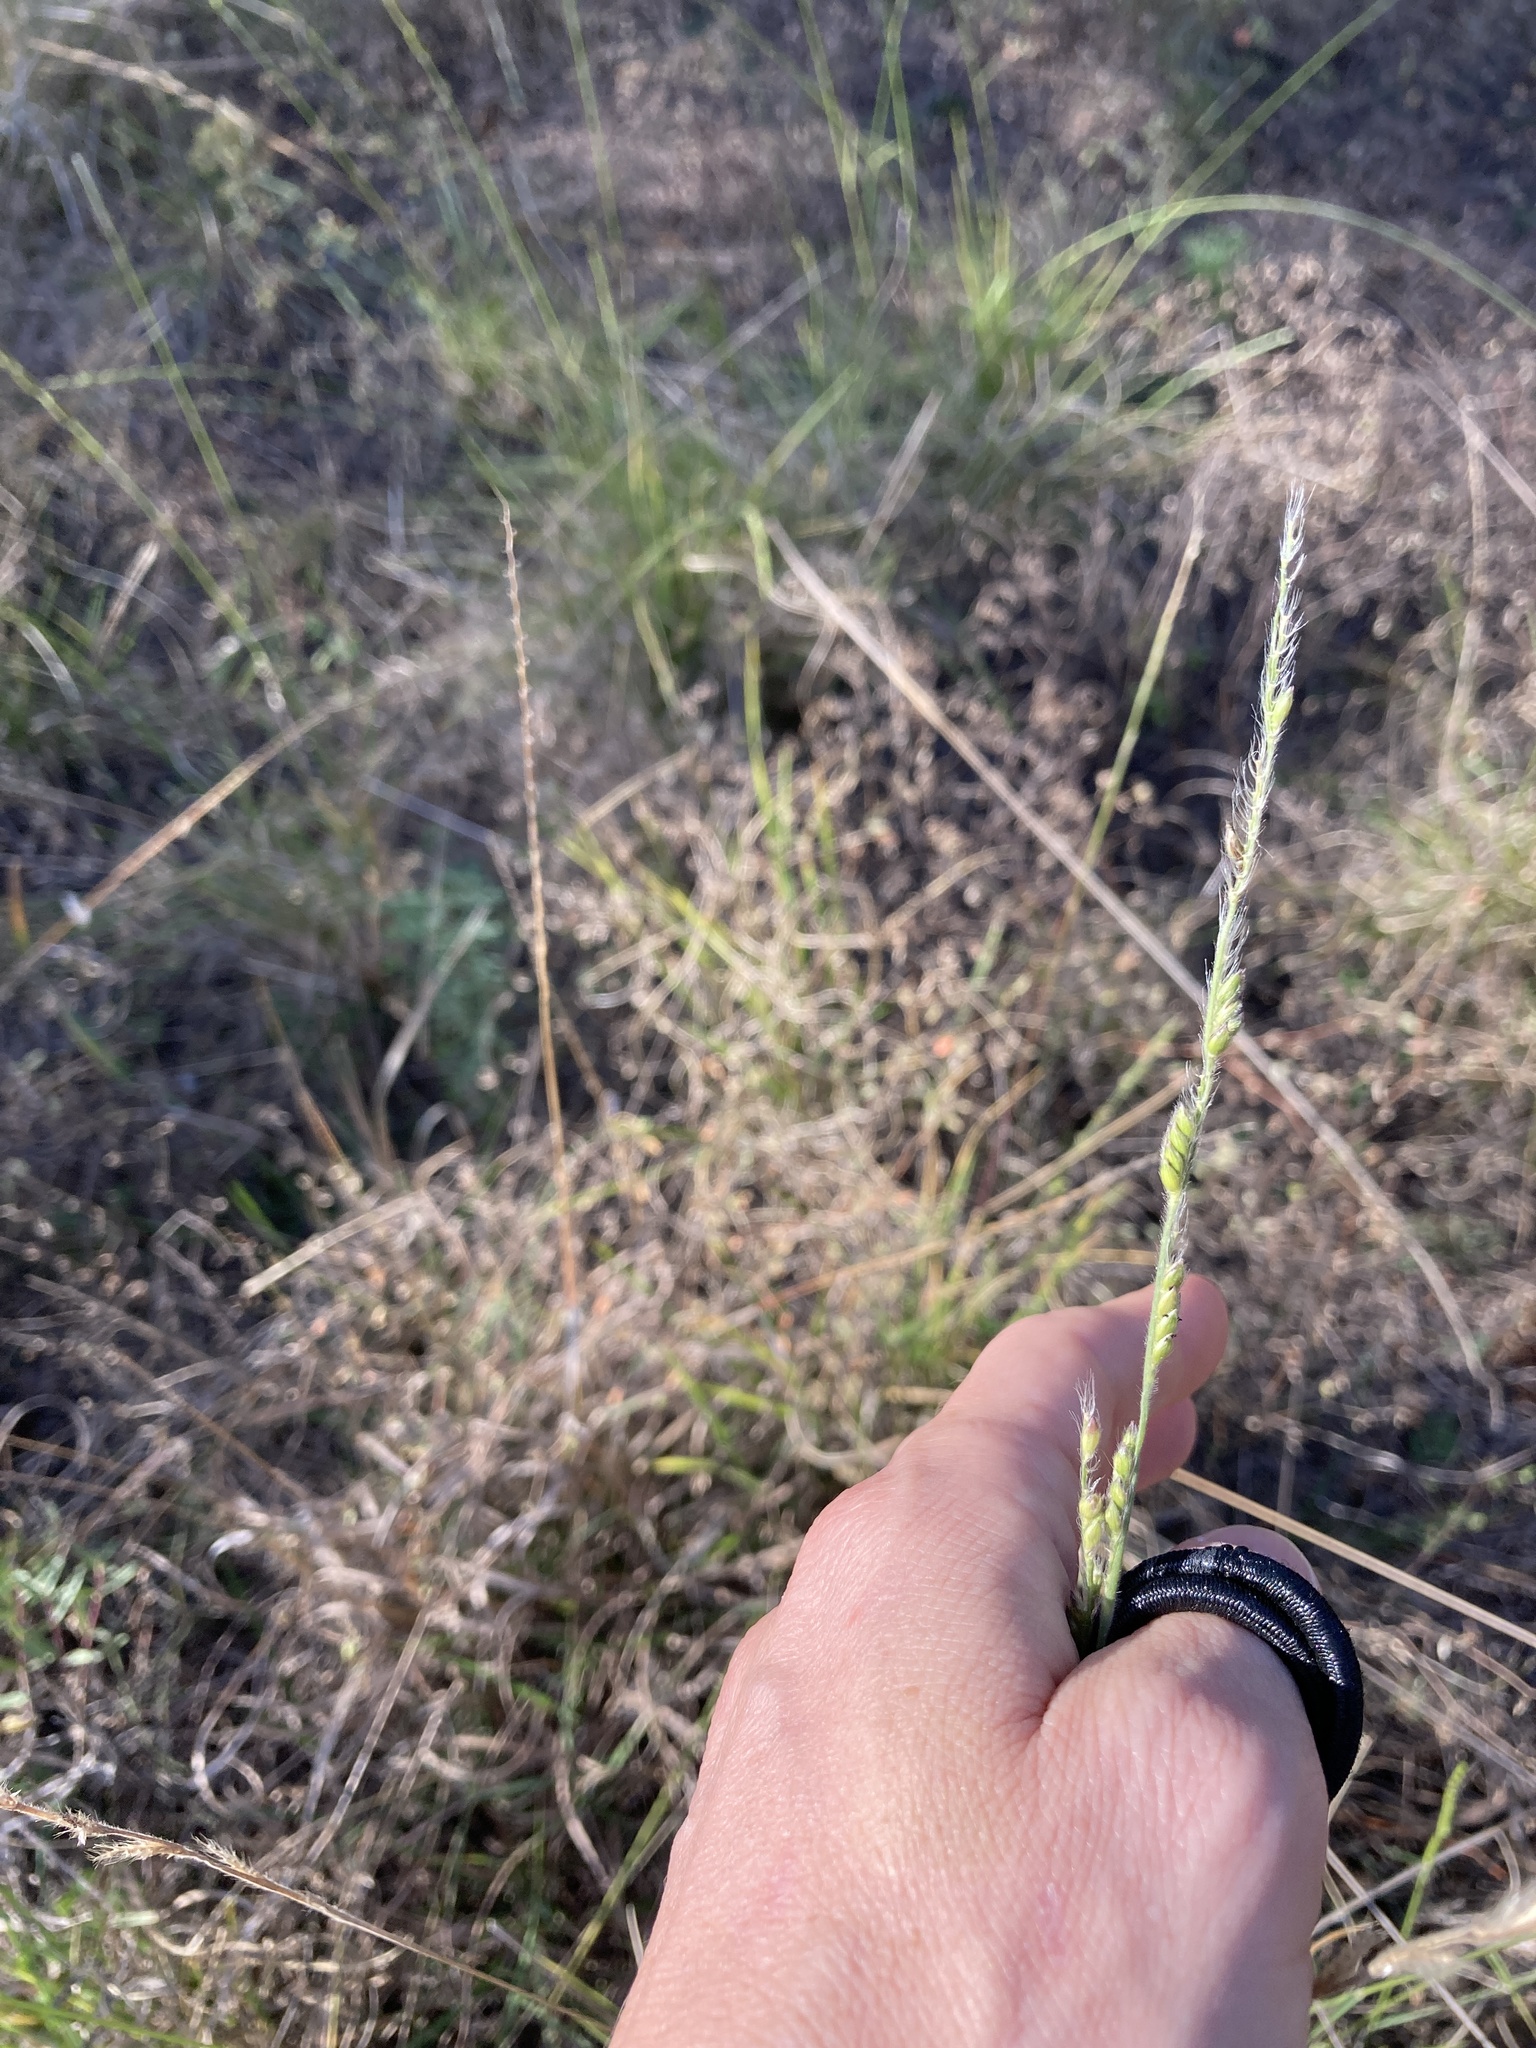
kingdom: Plantae
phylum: Tracheophyta
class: Liliopsida
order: Poales
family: Poaceae
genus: Eriochloa
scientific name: Eriochloa sericea
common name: Texas cup grass
